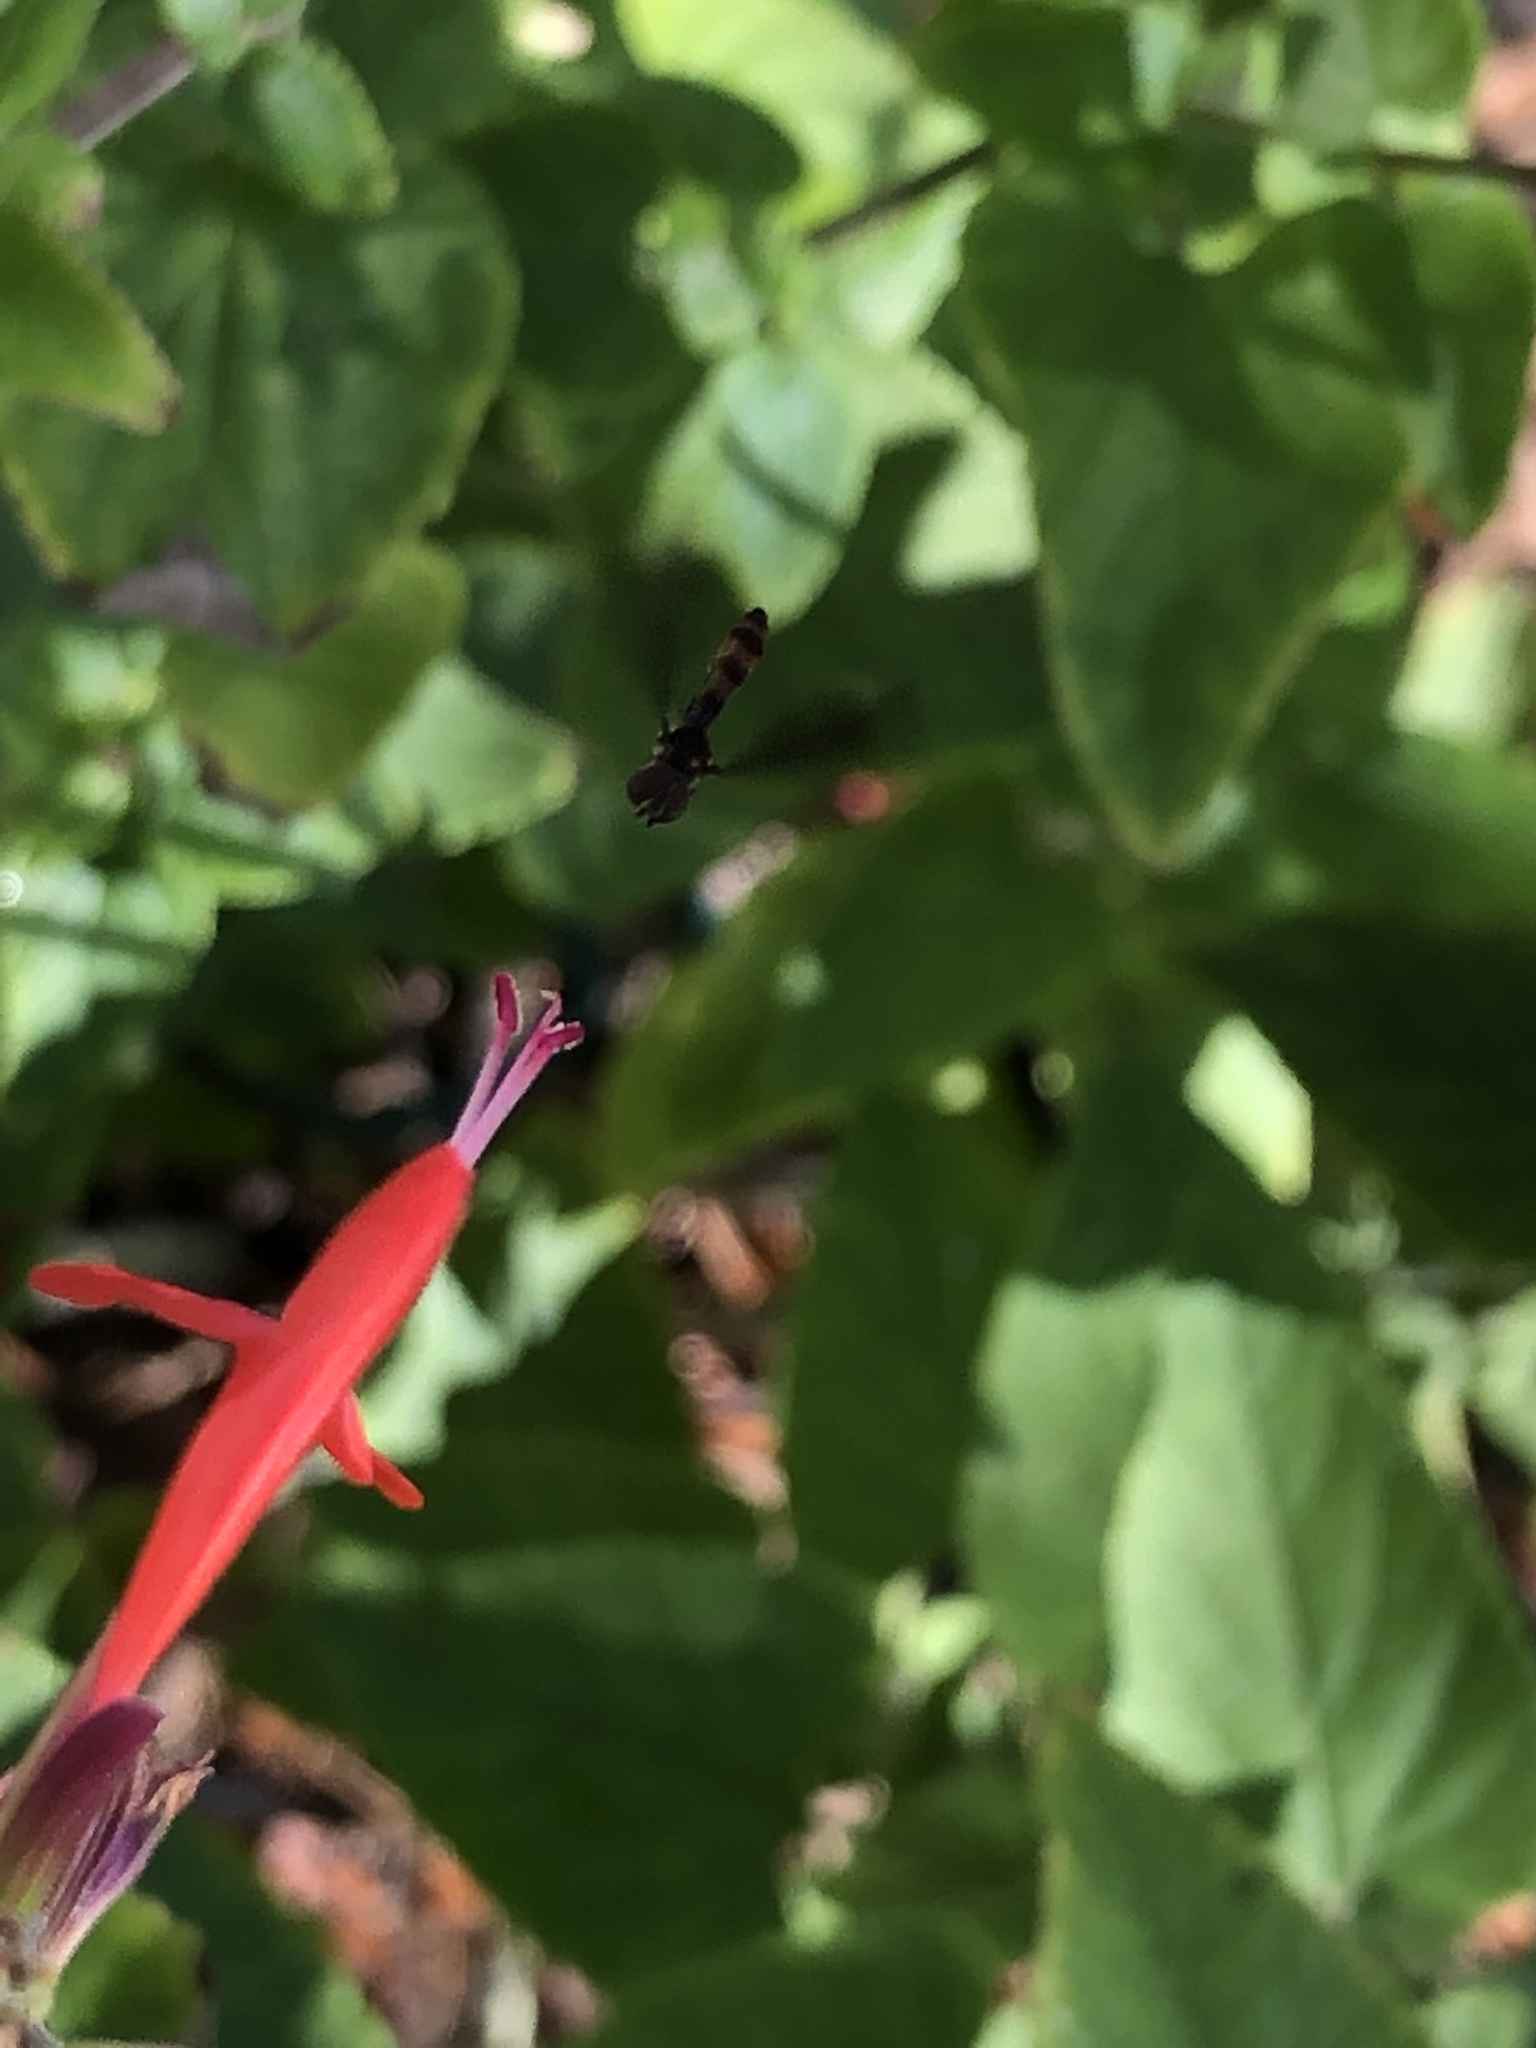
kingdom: Animalia
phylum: Arthropoda
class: Insecta
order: Diptera
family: Syrphidae
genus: Ocyptamus
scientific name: Ocyptamus fuscipennis
